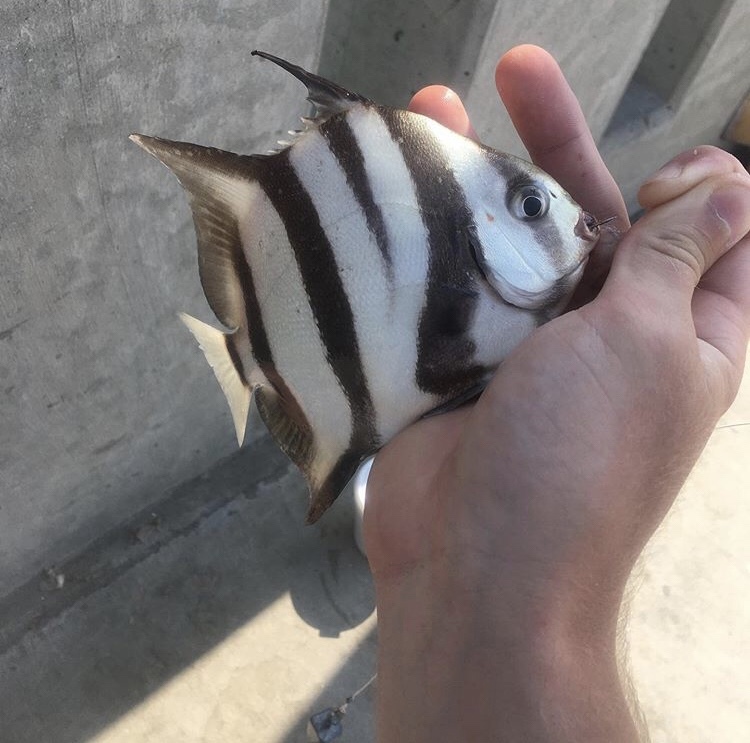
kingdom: Animalia
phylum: Chordata
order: Perciformes
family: Ephippidae
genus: Chaetodipterus
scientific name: Chaetodipterus faber
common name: Ocean cobbler
